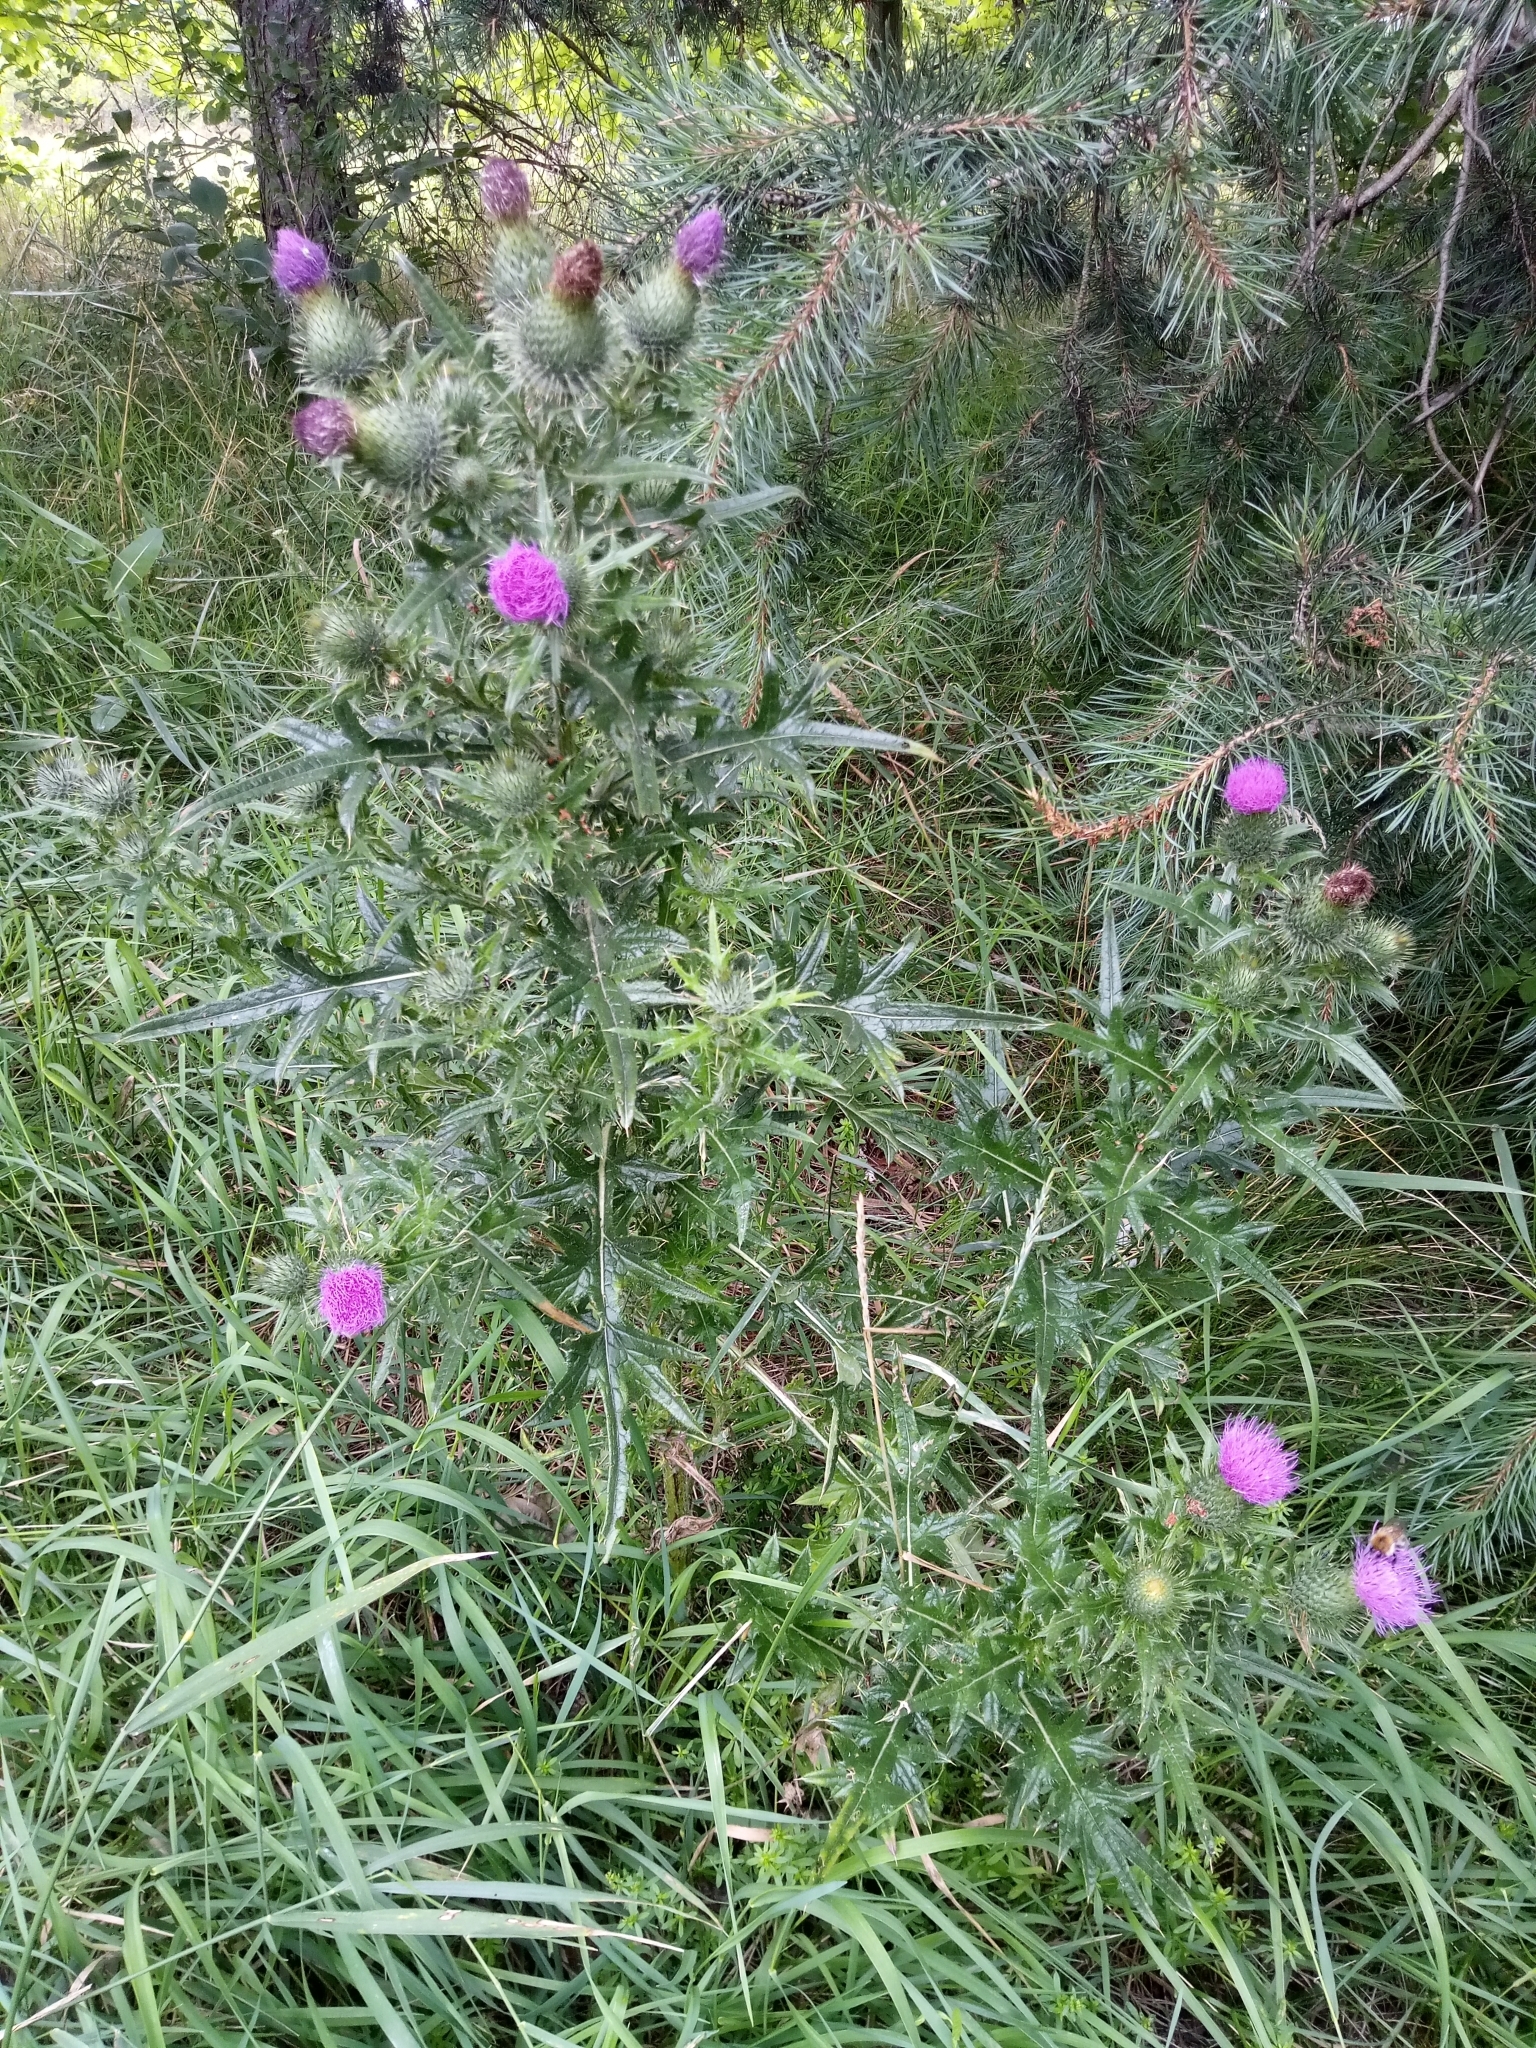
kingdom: Plantae
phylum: Tracheophyta
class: Magnoliopsida
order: Asterales
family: Asteraceae
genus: Cirsium
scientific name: Cirsium vulgare
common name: Bull thistle
